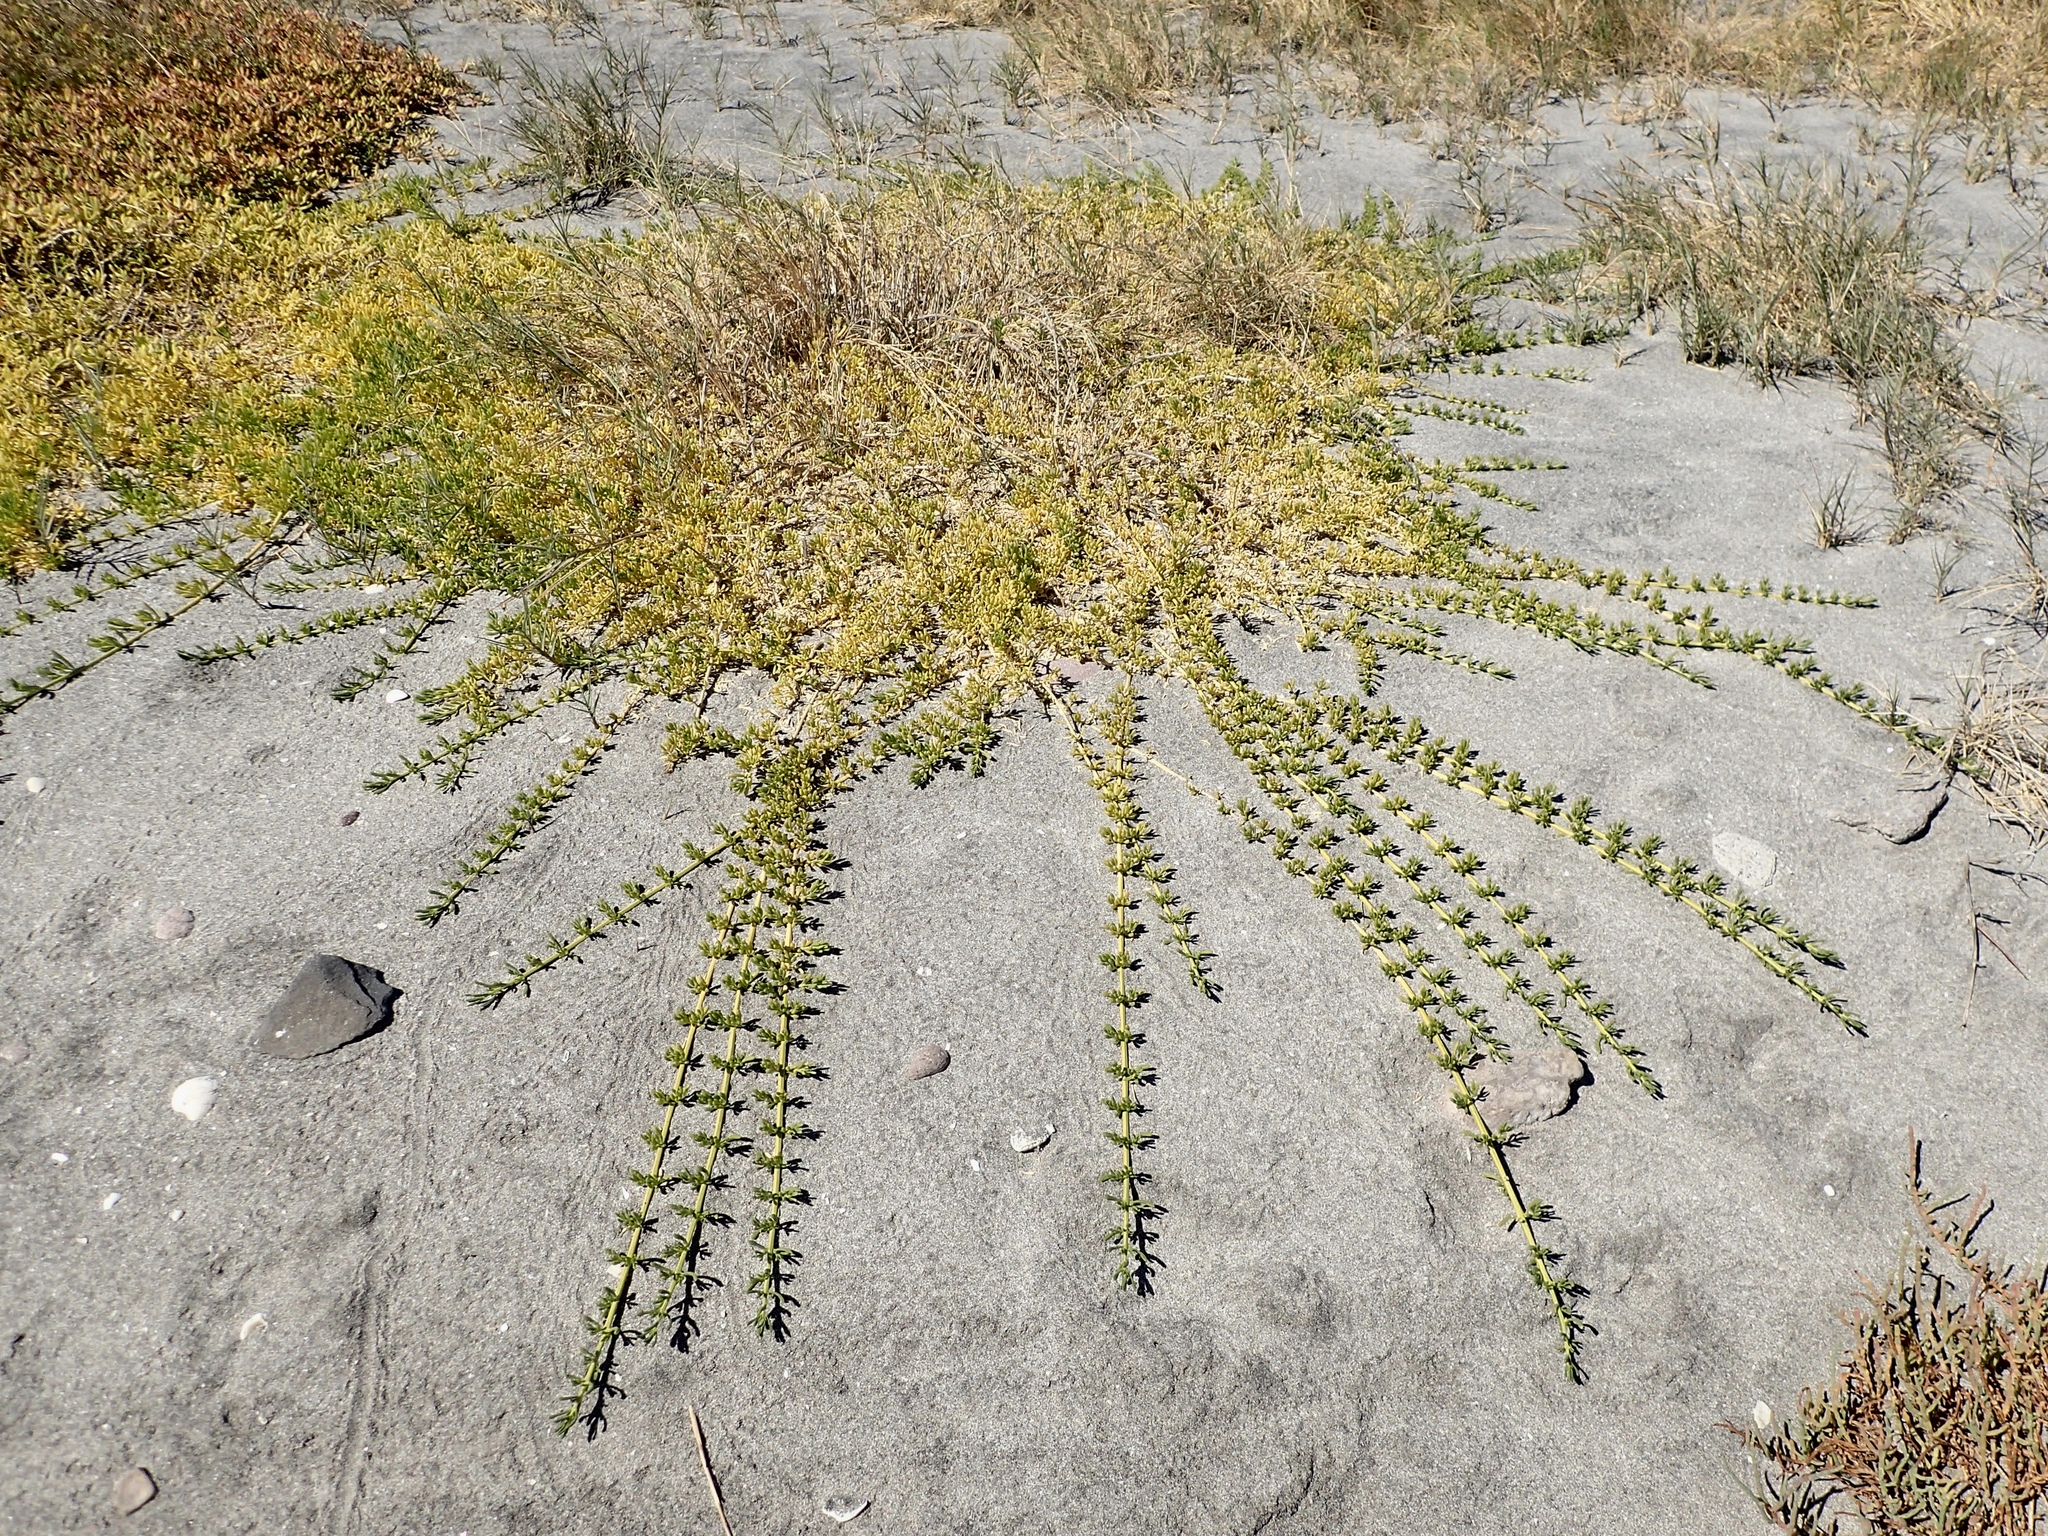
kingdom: Plantae
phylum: Tracheophyta
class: Magnoliopsida
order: Brassicales
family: Bataceae
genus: Batis
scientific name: Batis maritima
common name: Turtleweed
